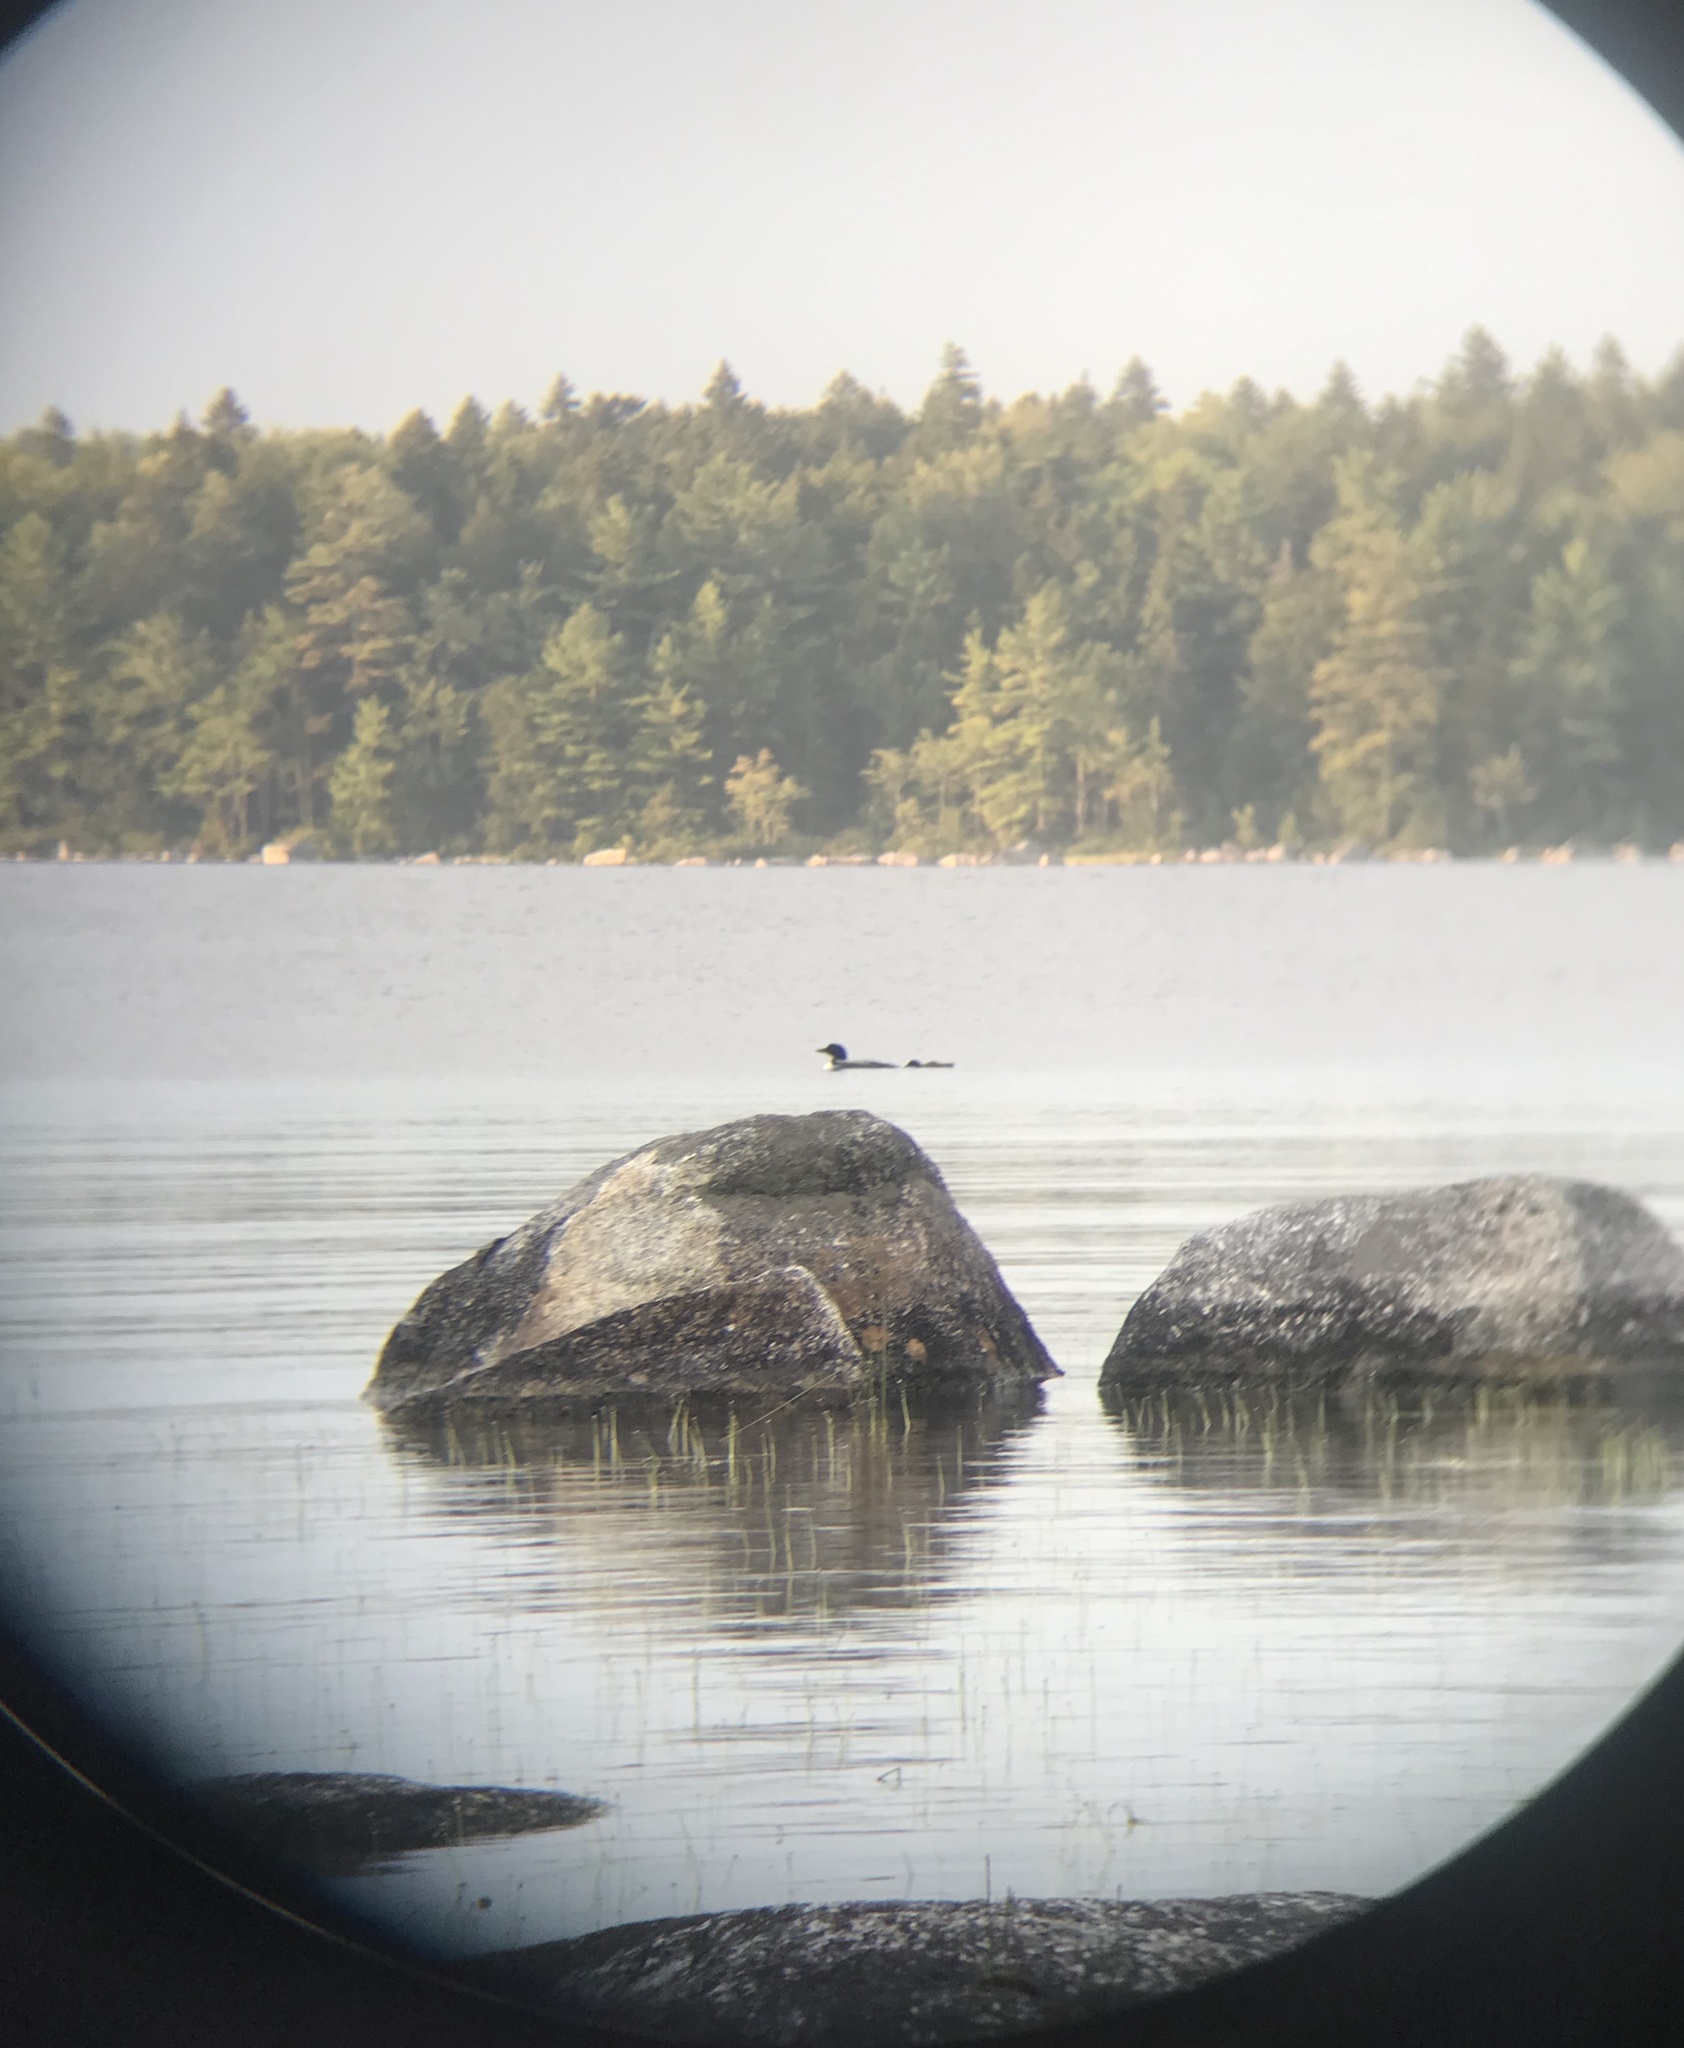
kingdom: Animalia
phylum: Chordata
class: Aves
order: Gaviiformes
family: Gaviidae
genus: Gavia
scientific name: Gavia immer
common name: Common loon
